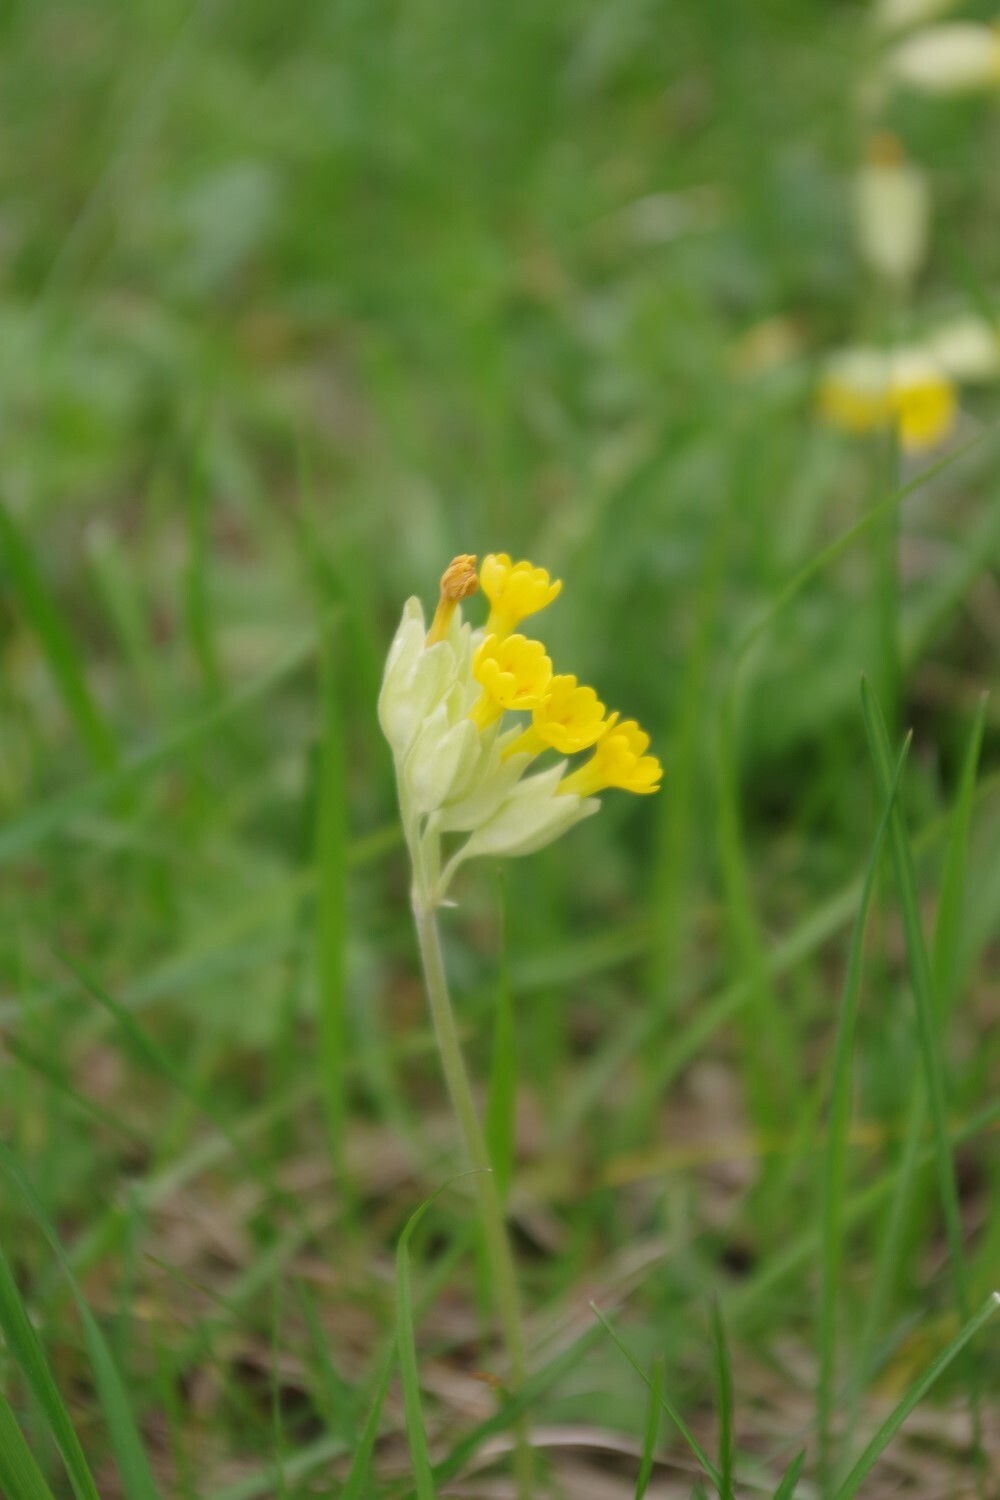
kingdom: Plantae
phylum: Tracheophyta
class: Magnoliopsida
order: Ericales
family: Primulaceae
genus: Primula
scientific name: Primula veris
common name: Cowslip
